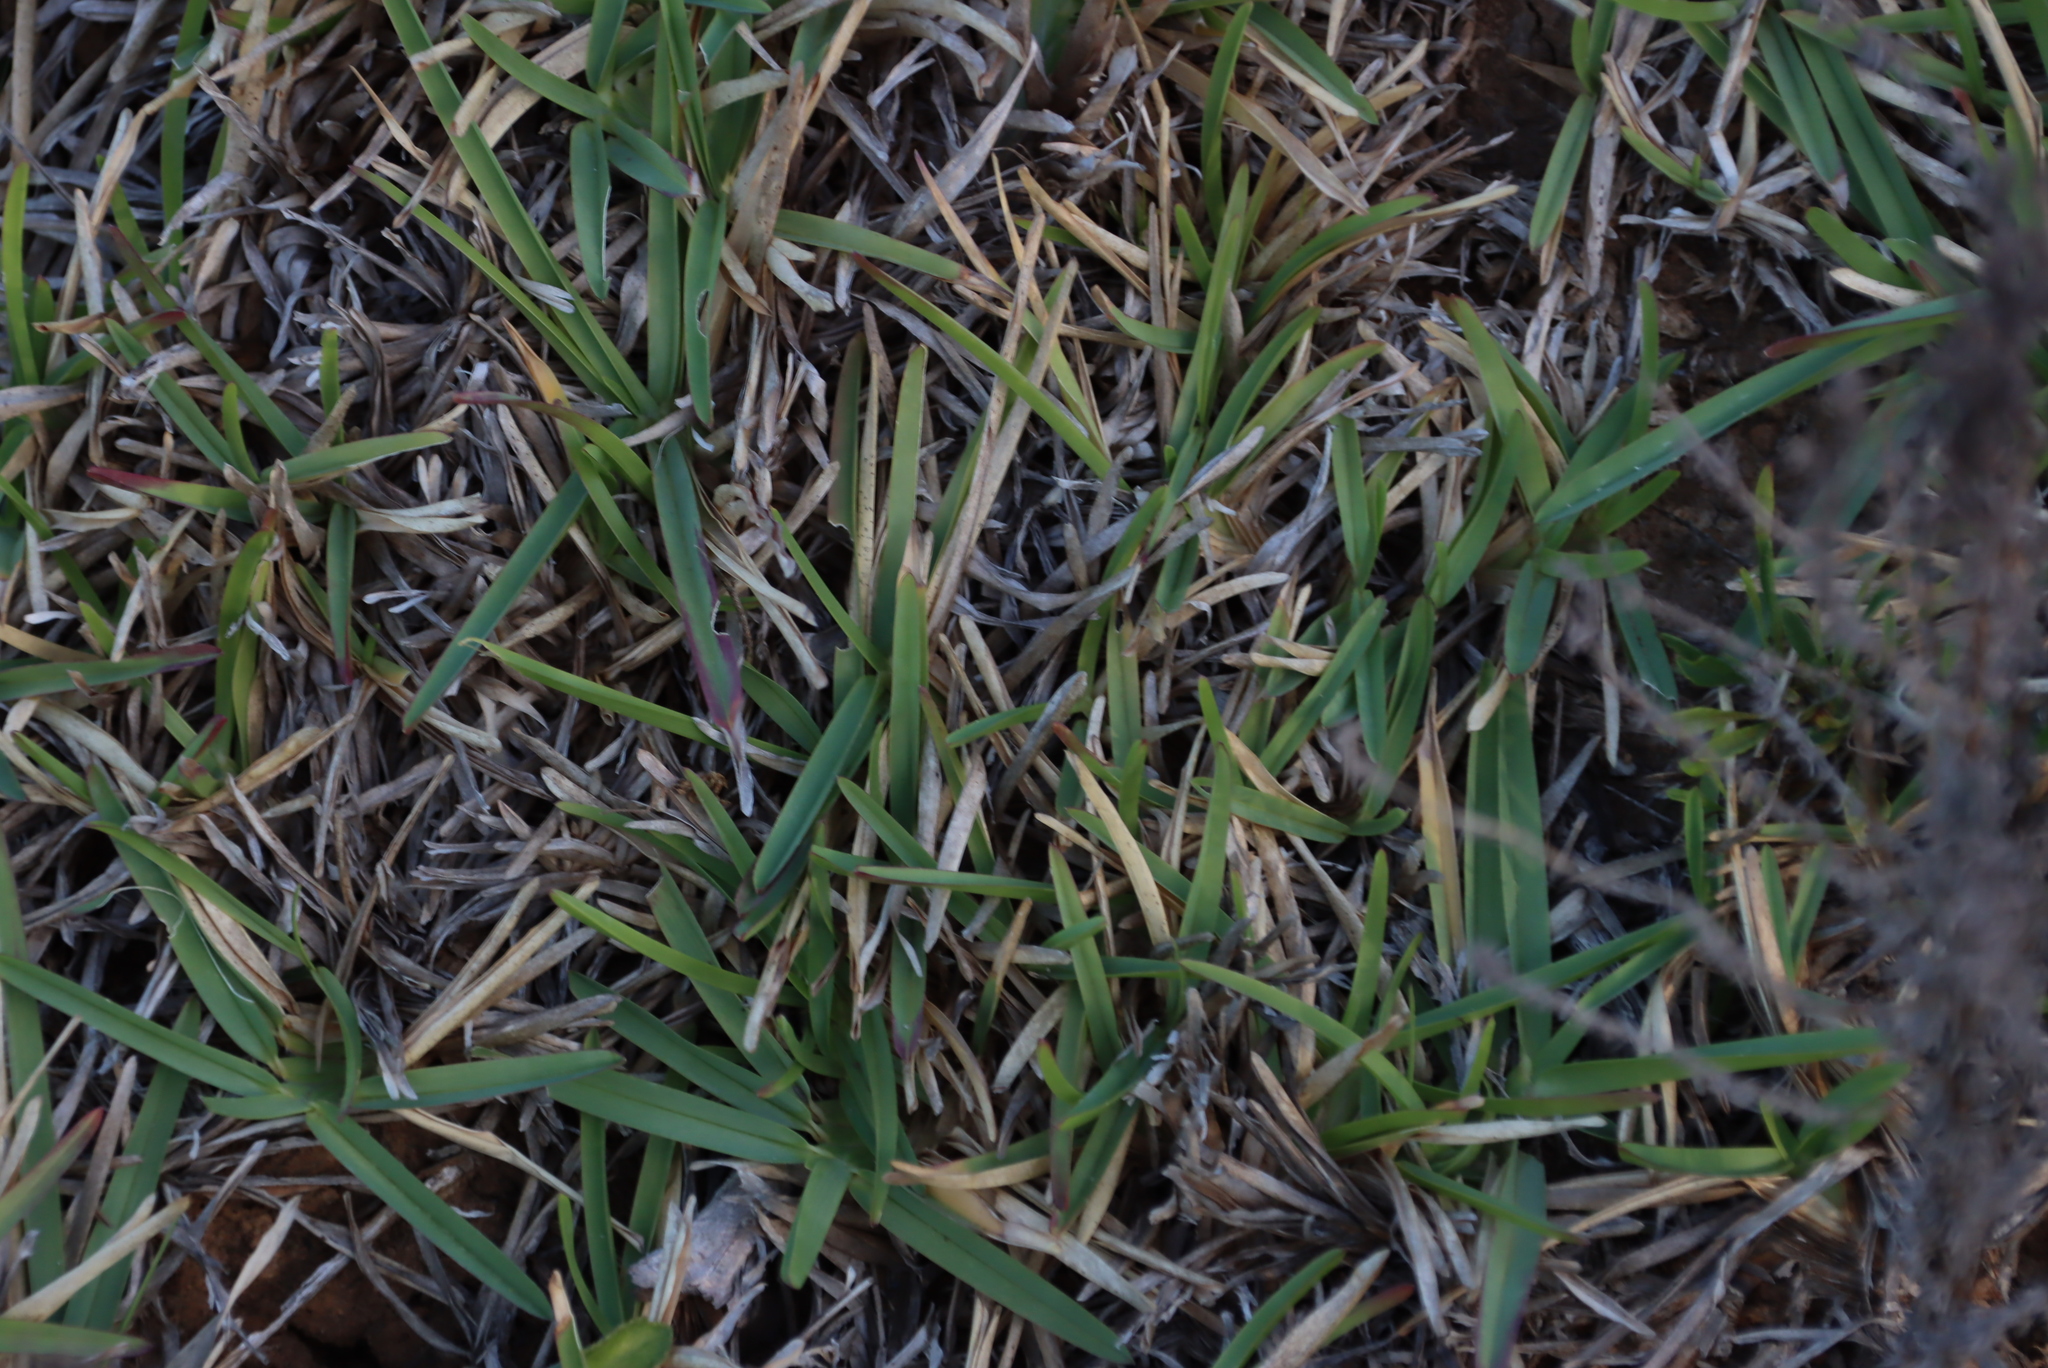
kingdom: Plantae
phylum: Tracheophyta
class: Liliopsida
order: Poales
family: Poaceae
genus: Stenotaphrum
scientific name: Stenotaphrum secundatum
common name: St. augustine grass
